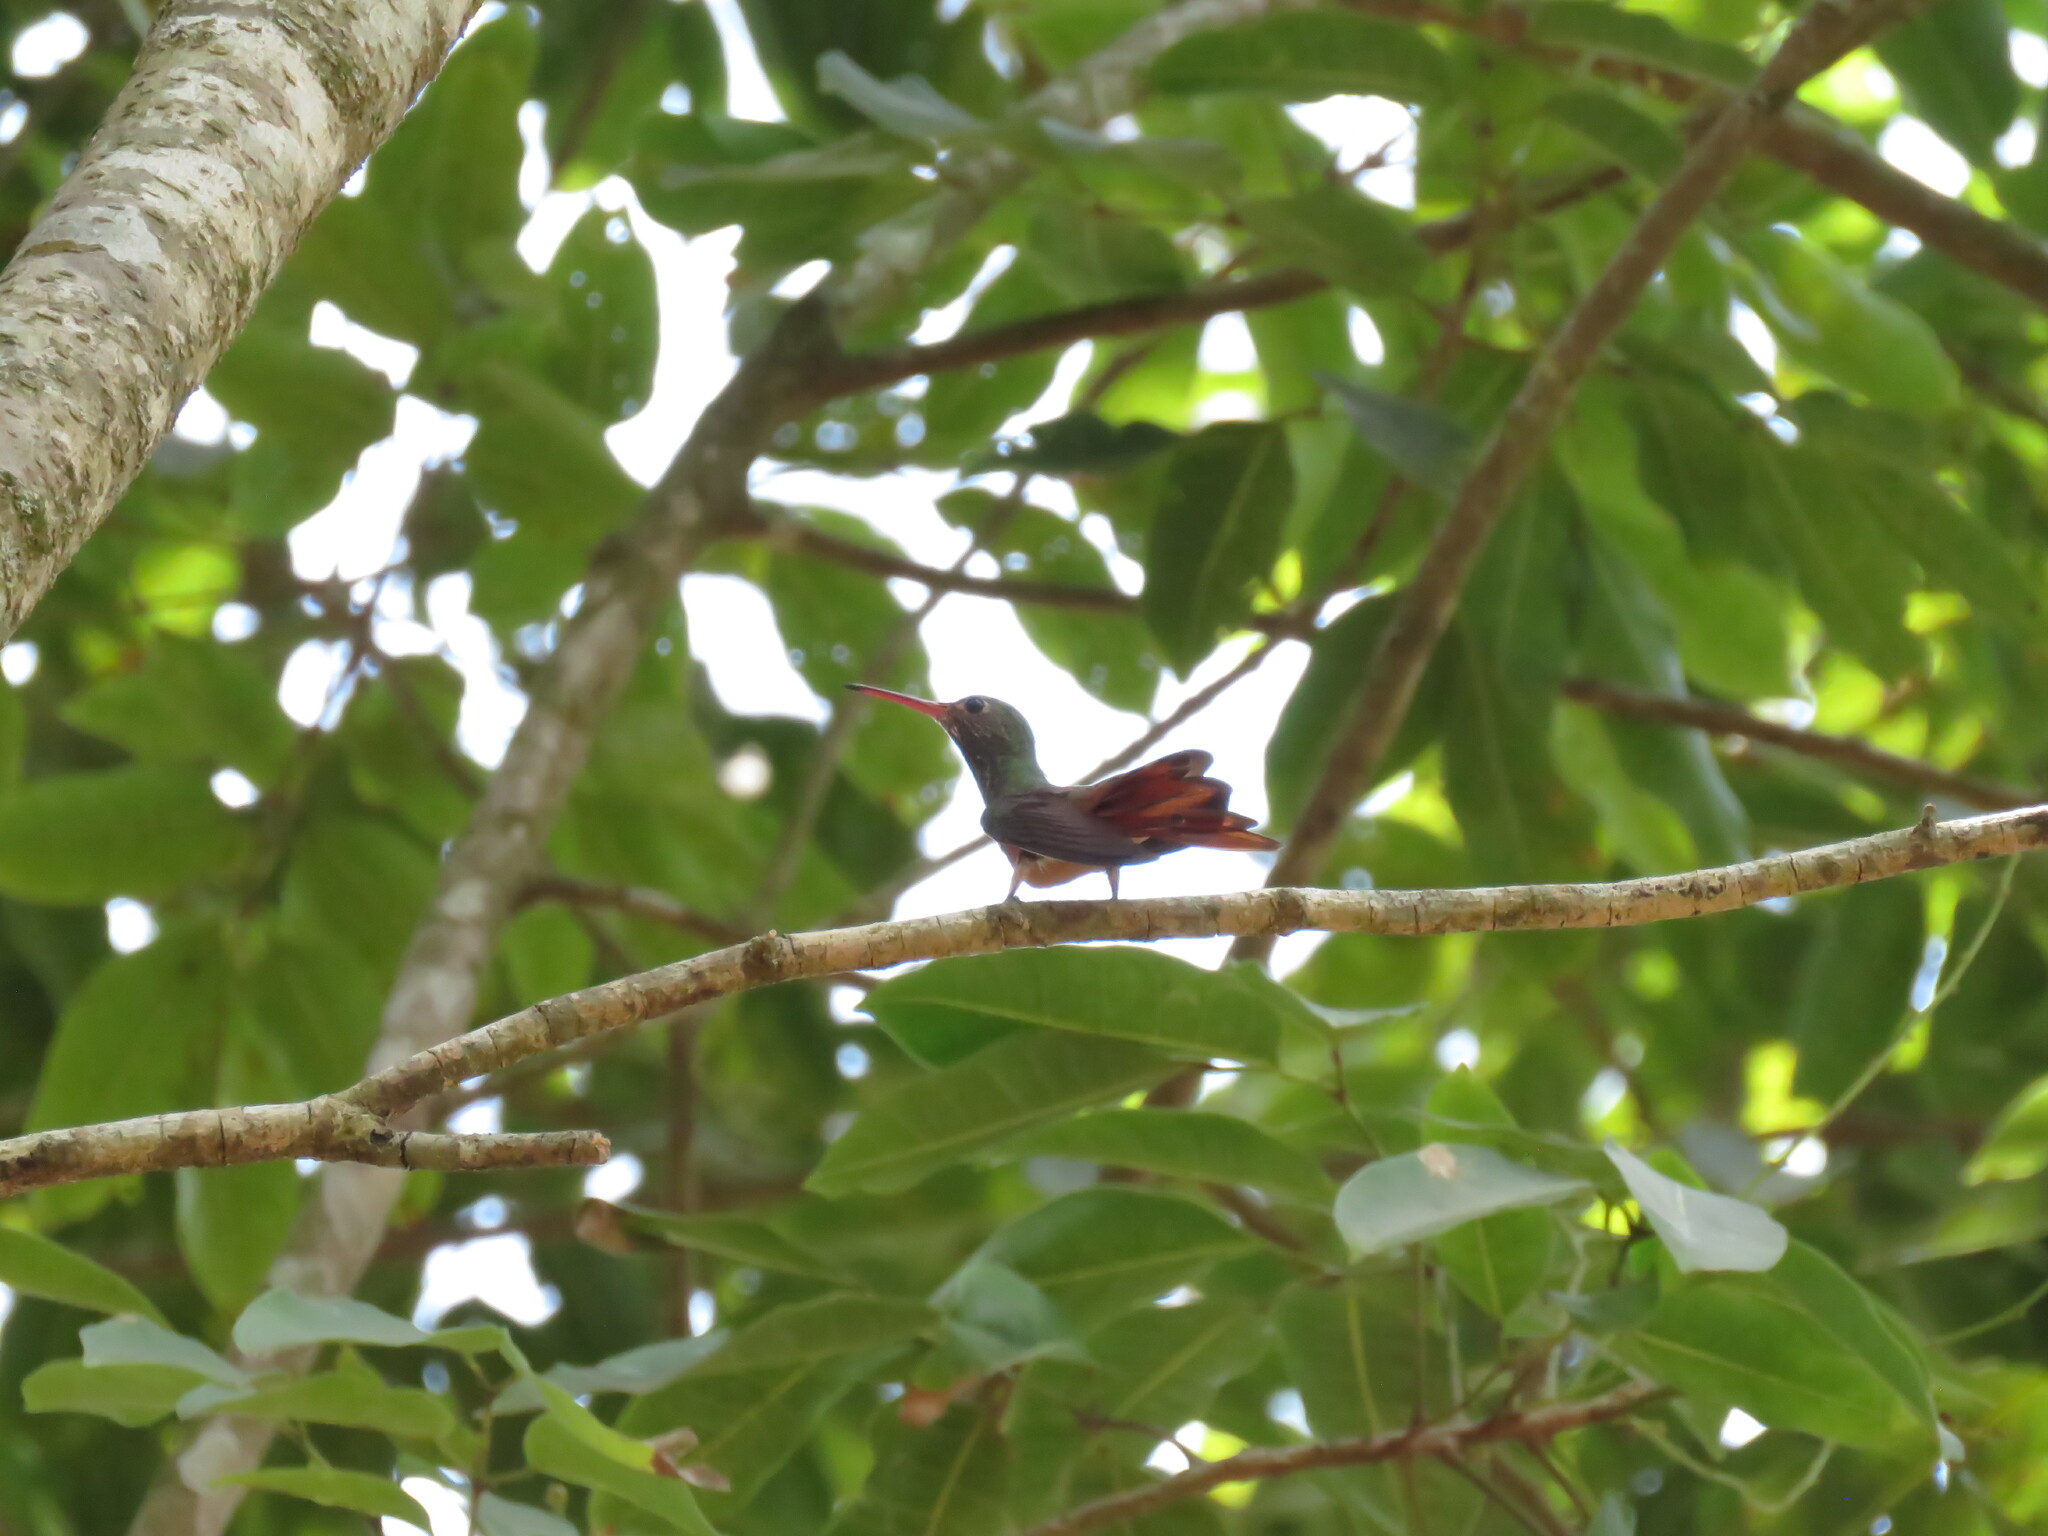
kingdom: Animalia
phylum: Chordata
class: Aves
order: Apodiformes
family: Trochilidae
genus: Amazilia
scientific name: Amazilia yucatanensis
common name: Buff-bellied hummingbird
